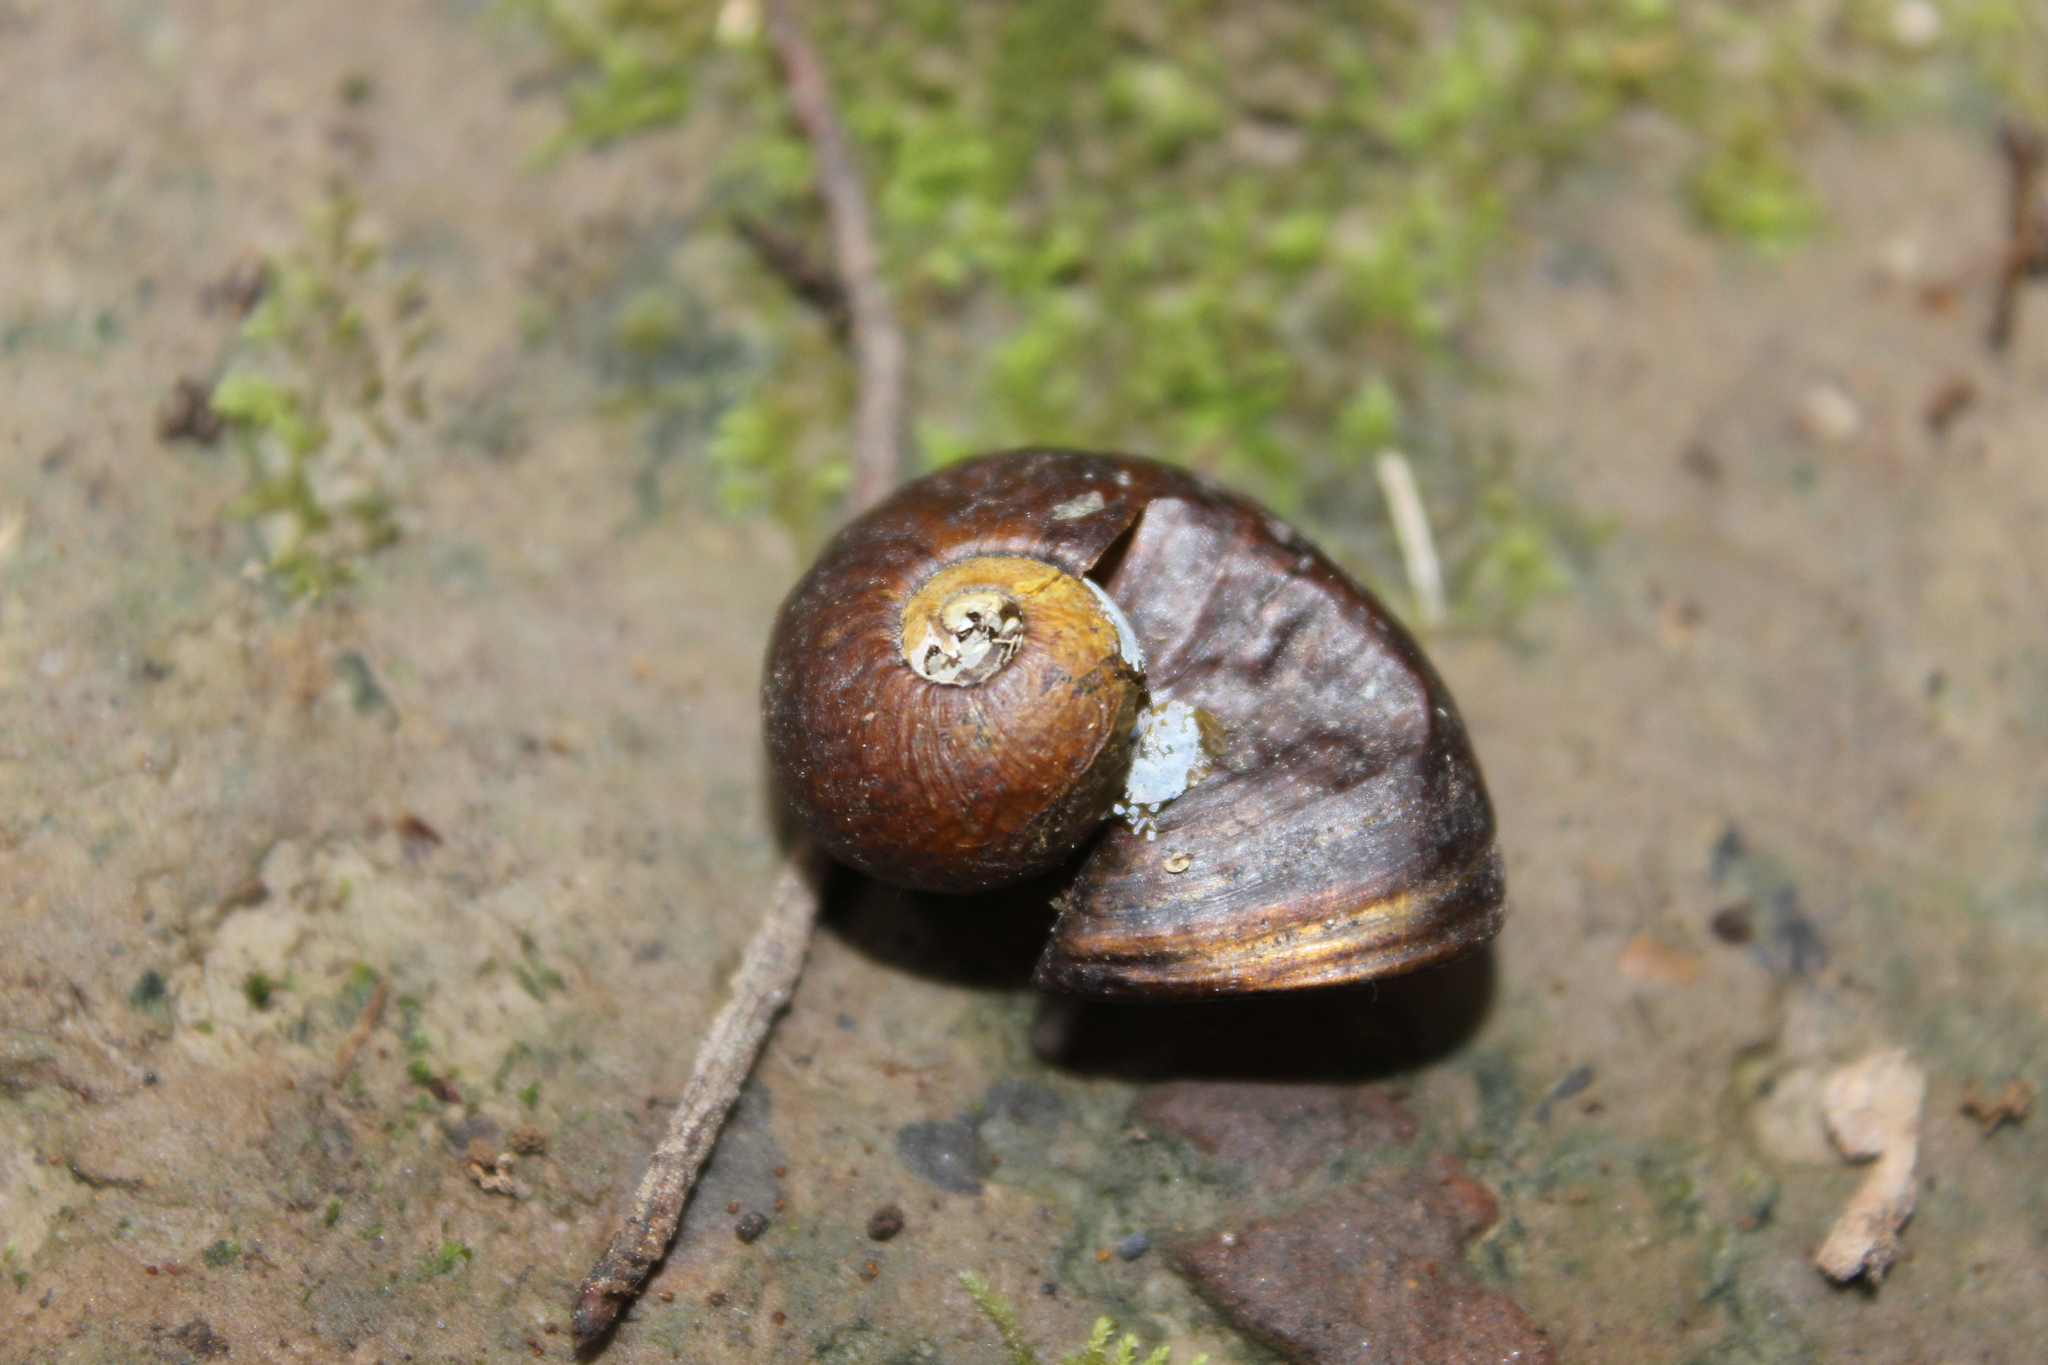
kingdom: Animalia
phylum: Mollusca
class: Gastropoda
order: Stylommatophora
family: Rhytididae
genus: Wainuia
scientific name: Wainuia urnula
